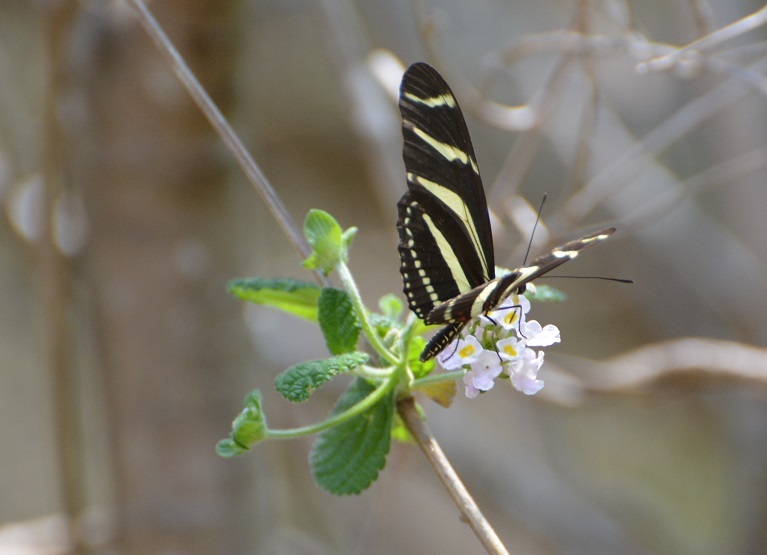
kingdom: Animalia
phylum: Arthropoda
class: Insecta
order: Lepidoptera
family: Nymphalidae
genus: Heliconius
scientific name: Heliconius charithonia
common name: Zebra long wing
